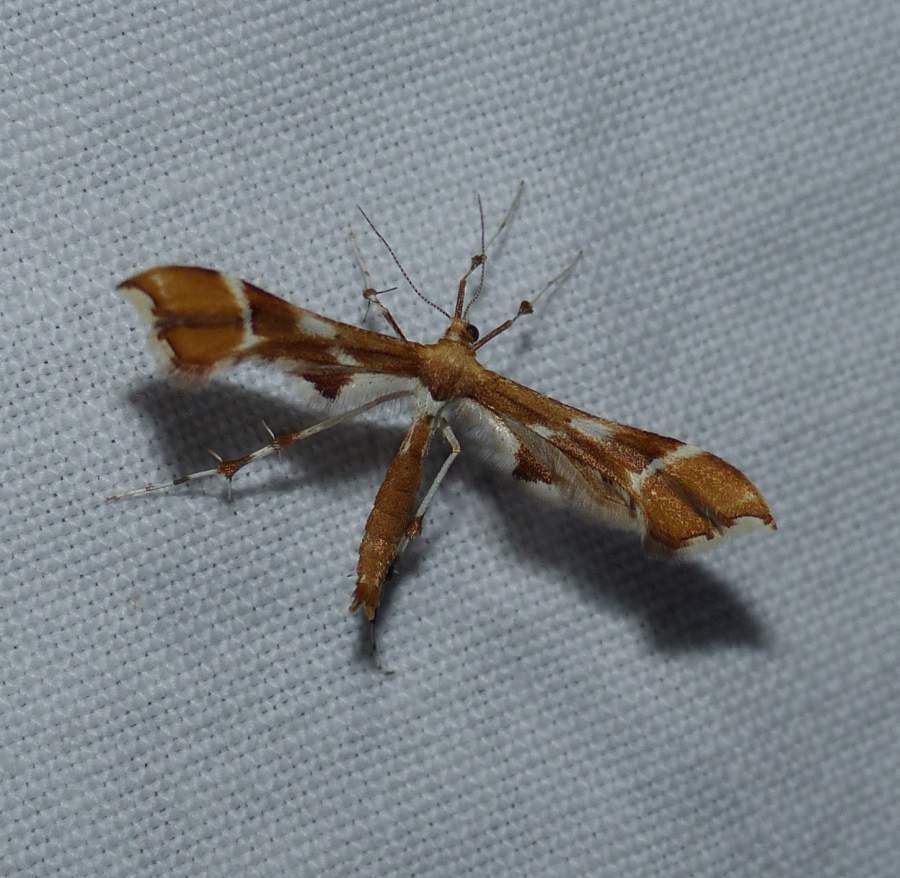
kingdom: Animalia
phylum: Arthropoda
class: Insecta
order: Lepidoptera
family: Pterophoridae
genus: Cnaemidophorus
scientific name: Cnaemidophorus rhododactyla
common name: Rose plume
